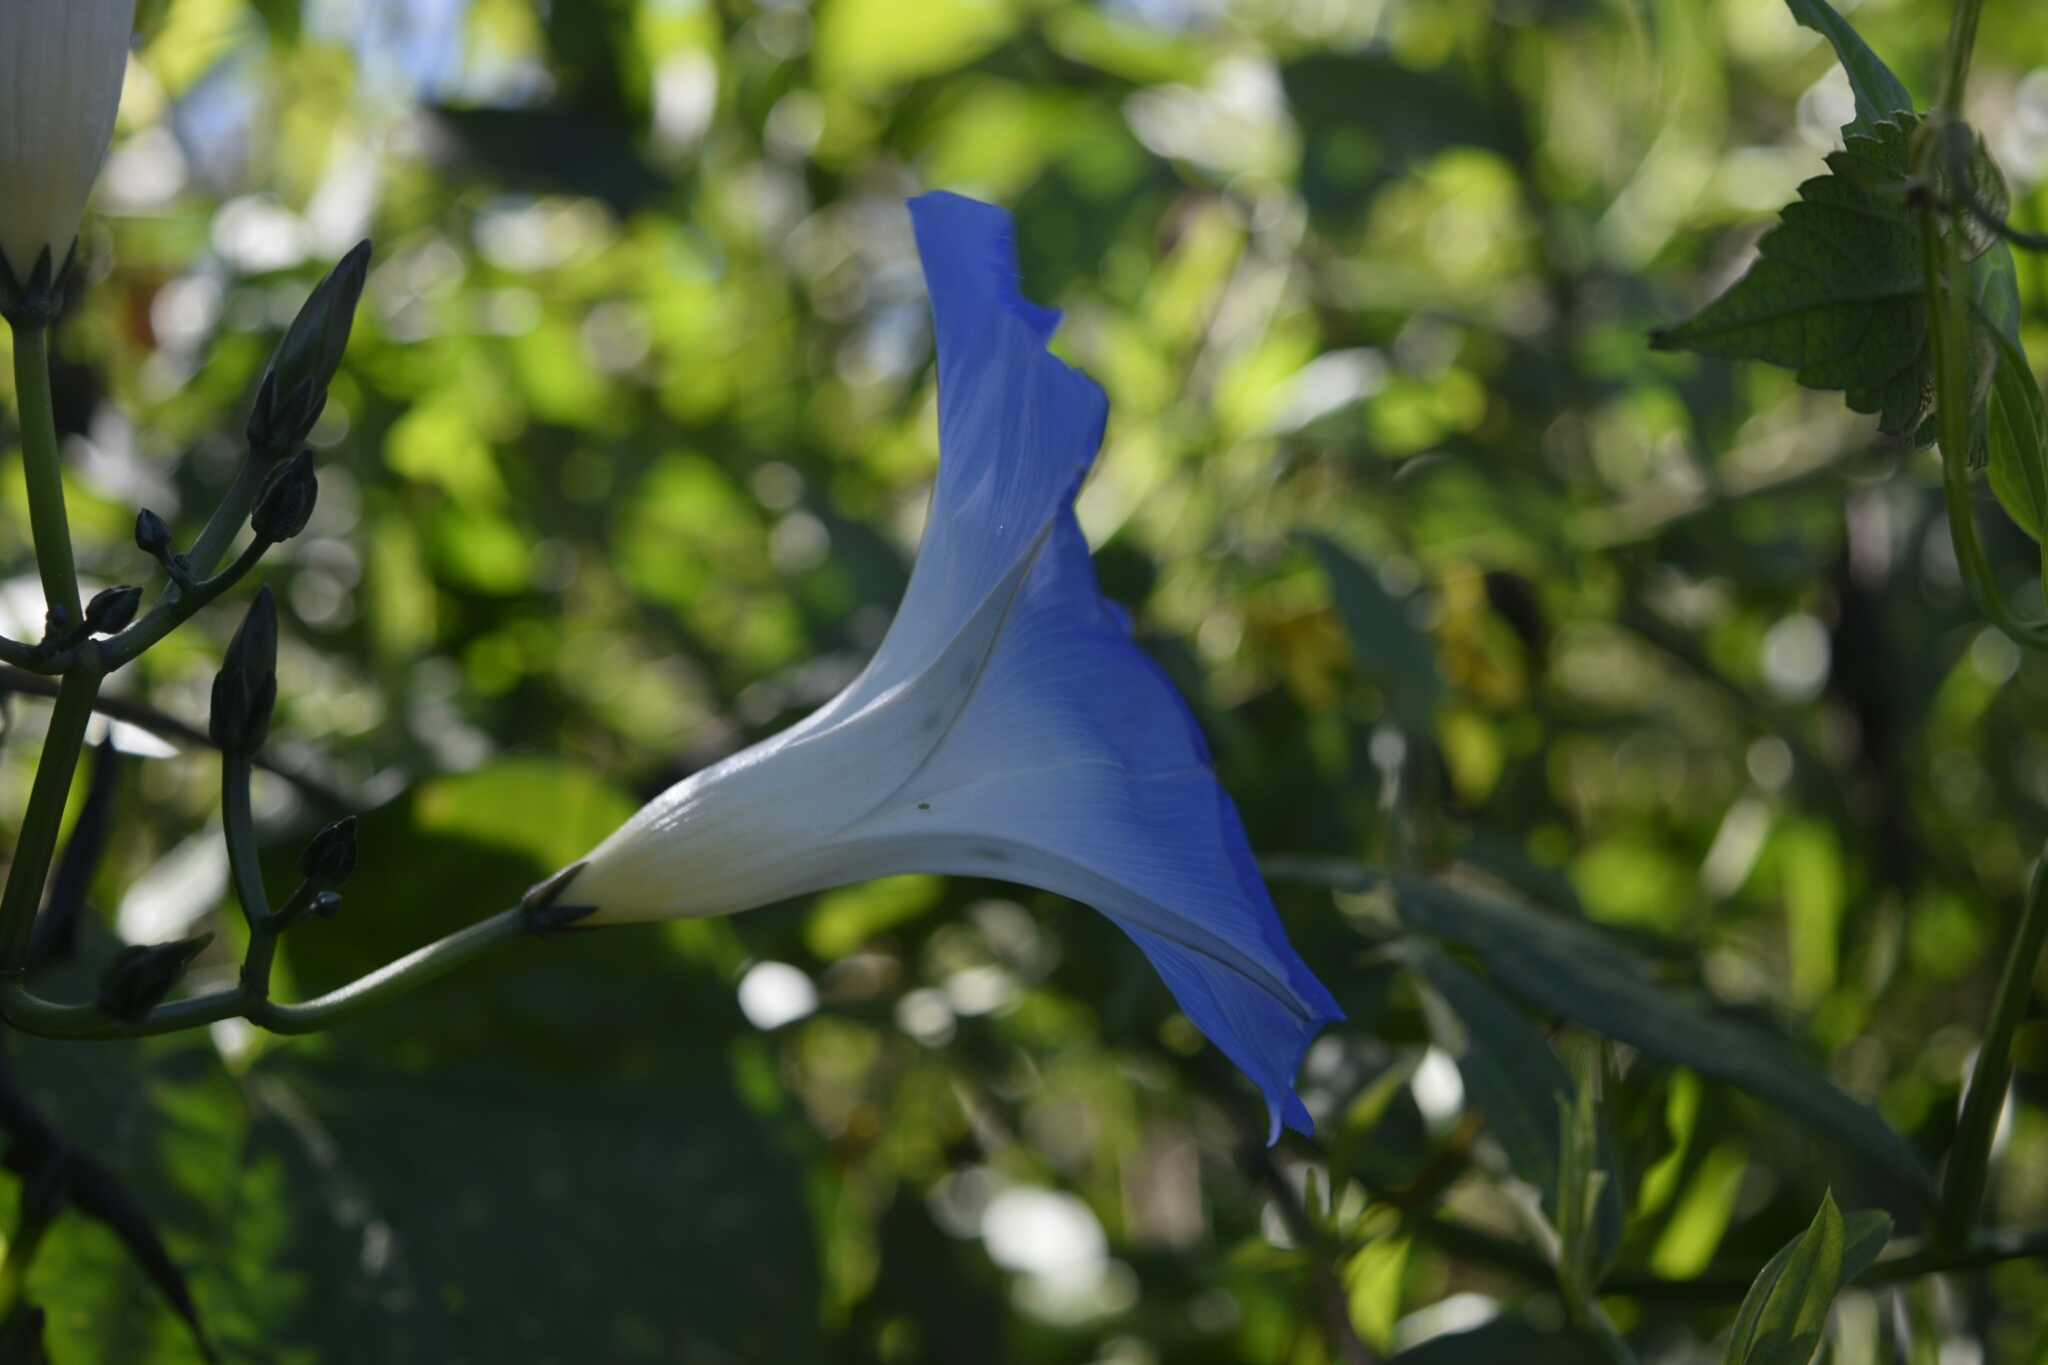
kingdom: Plantae
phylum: Tracheophyta
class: Magnoliopsida
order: Solanales
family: Convolvulaceae
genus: Ipomoea
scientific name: Ipomoea tricolor
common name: Morning-glory
